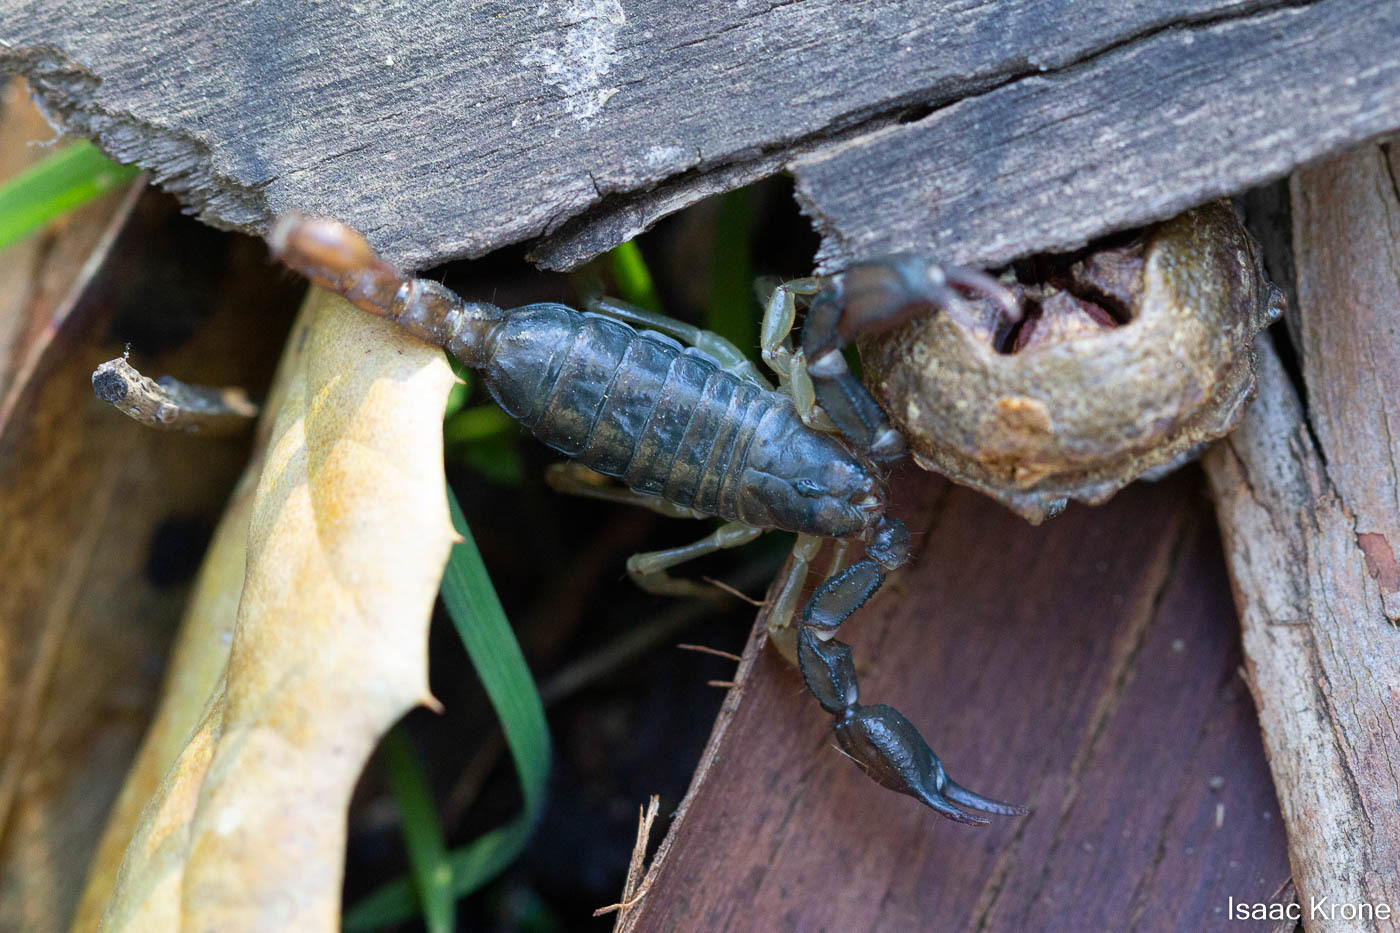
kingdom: Animalia
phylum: Arthropoda
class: Arachnida
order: Scorpiones
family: Chactidae
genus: Uroctonus
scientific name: Uroctonus mordax
